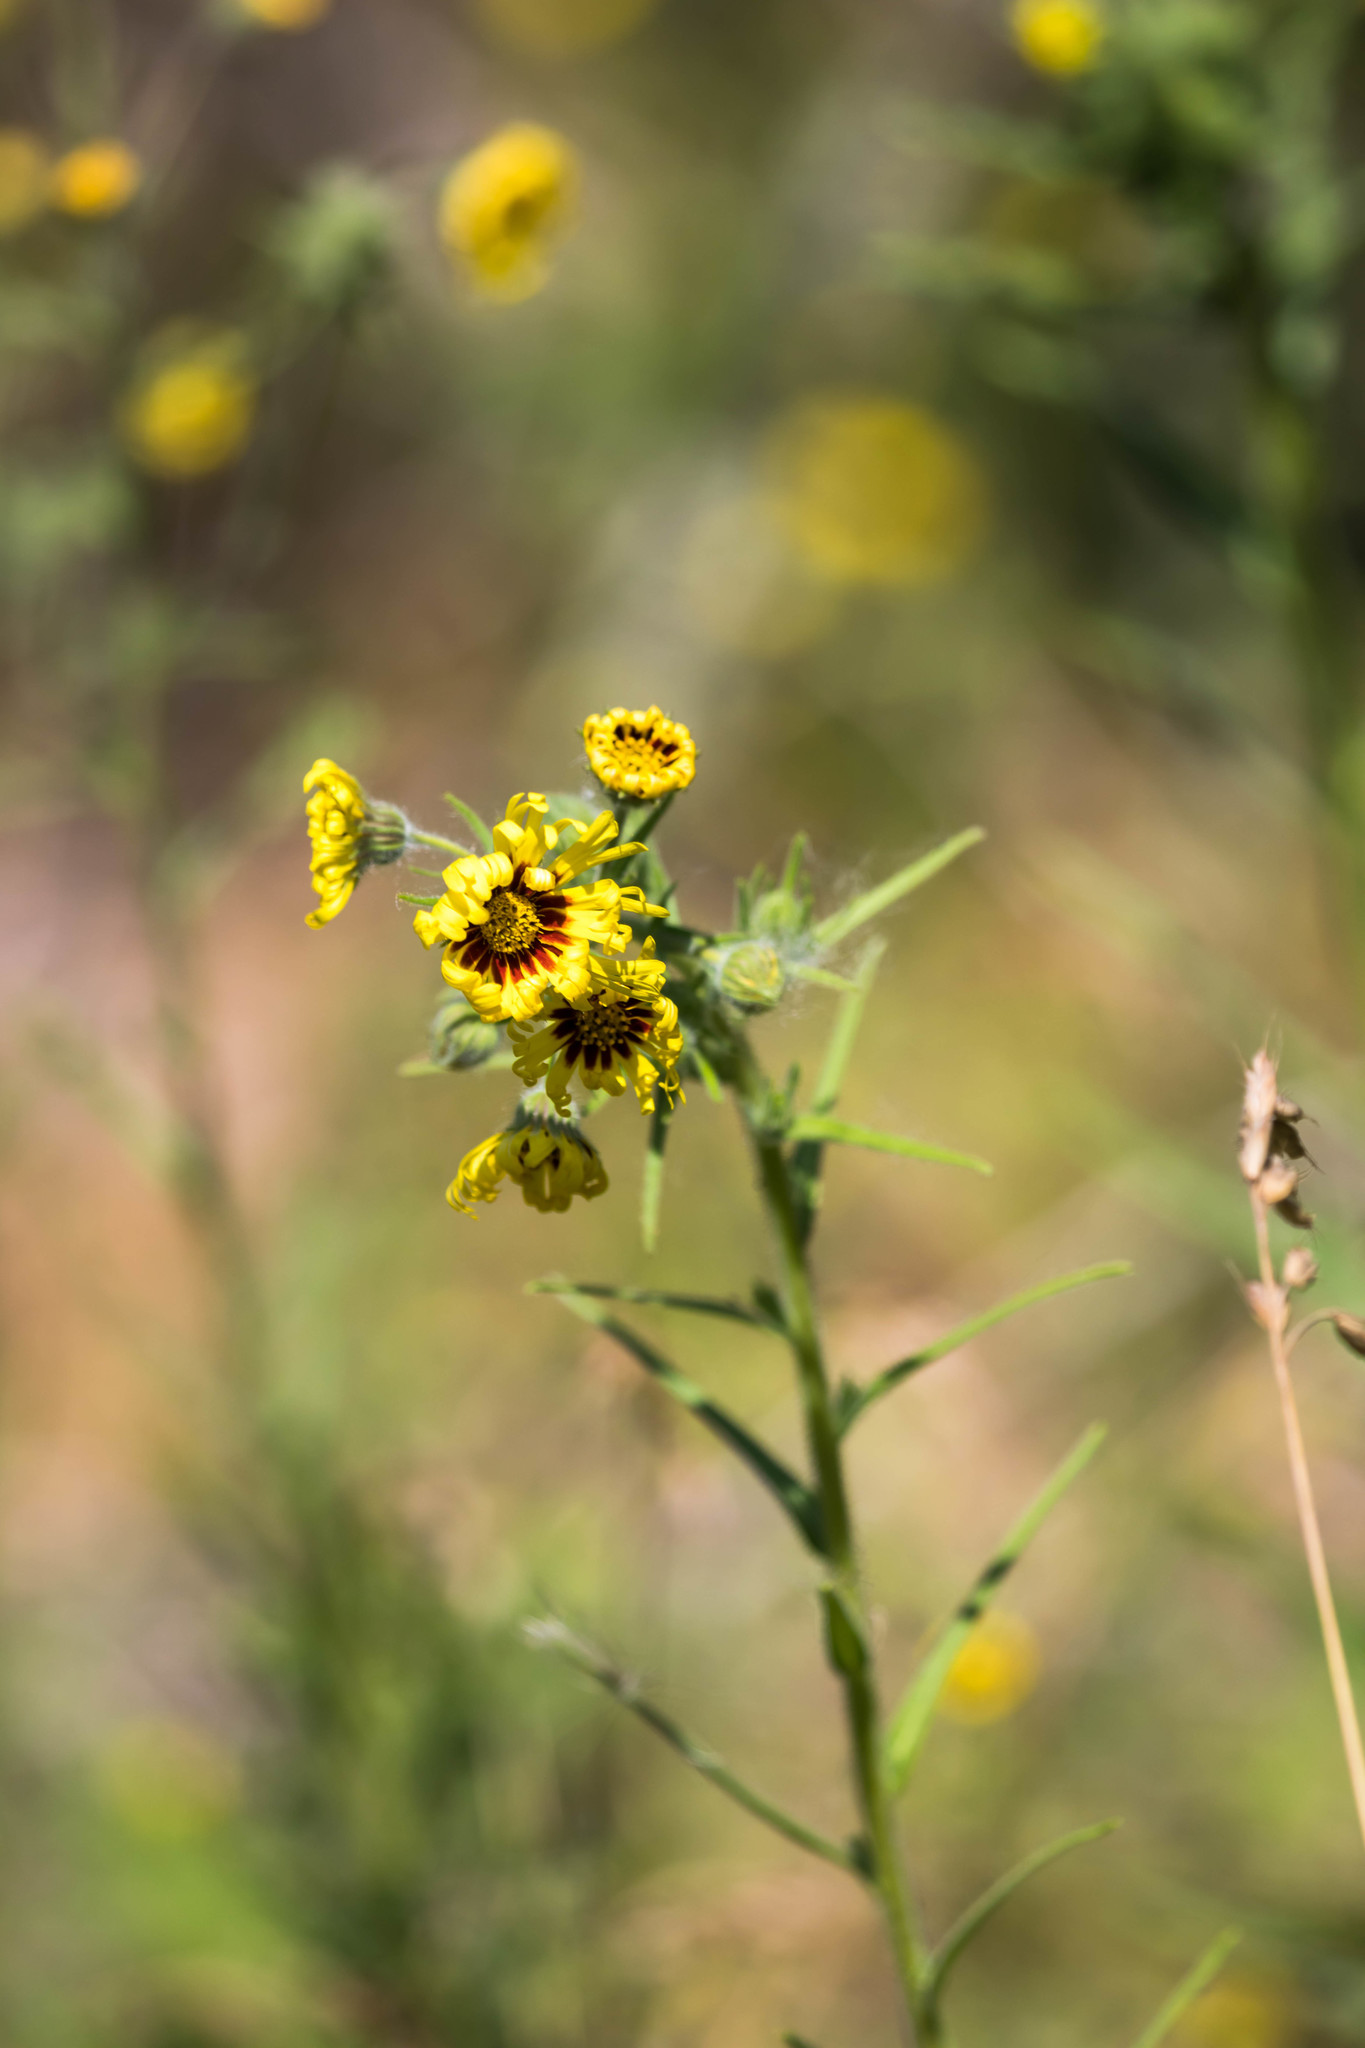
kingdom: Plantae
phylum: Tracheophyta
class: Magnoliopsida
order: Asterales
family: Asteraceae
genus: Madia
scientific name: Madia elegans
